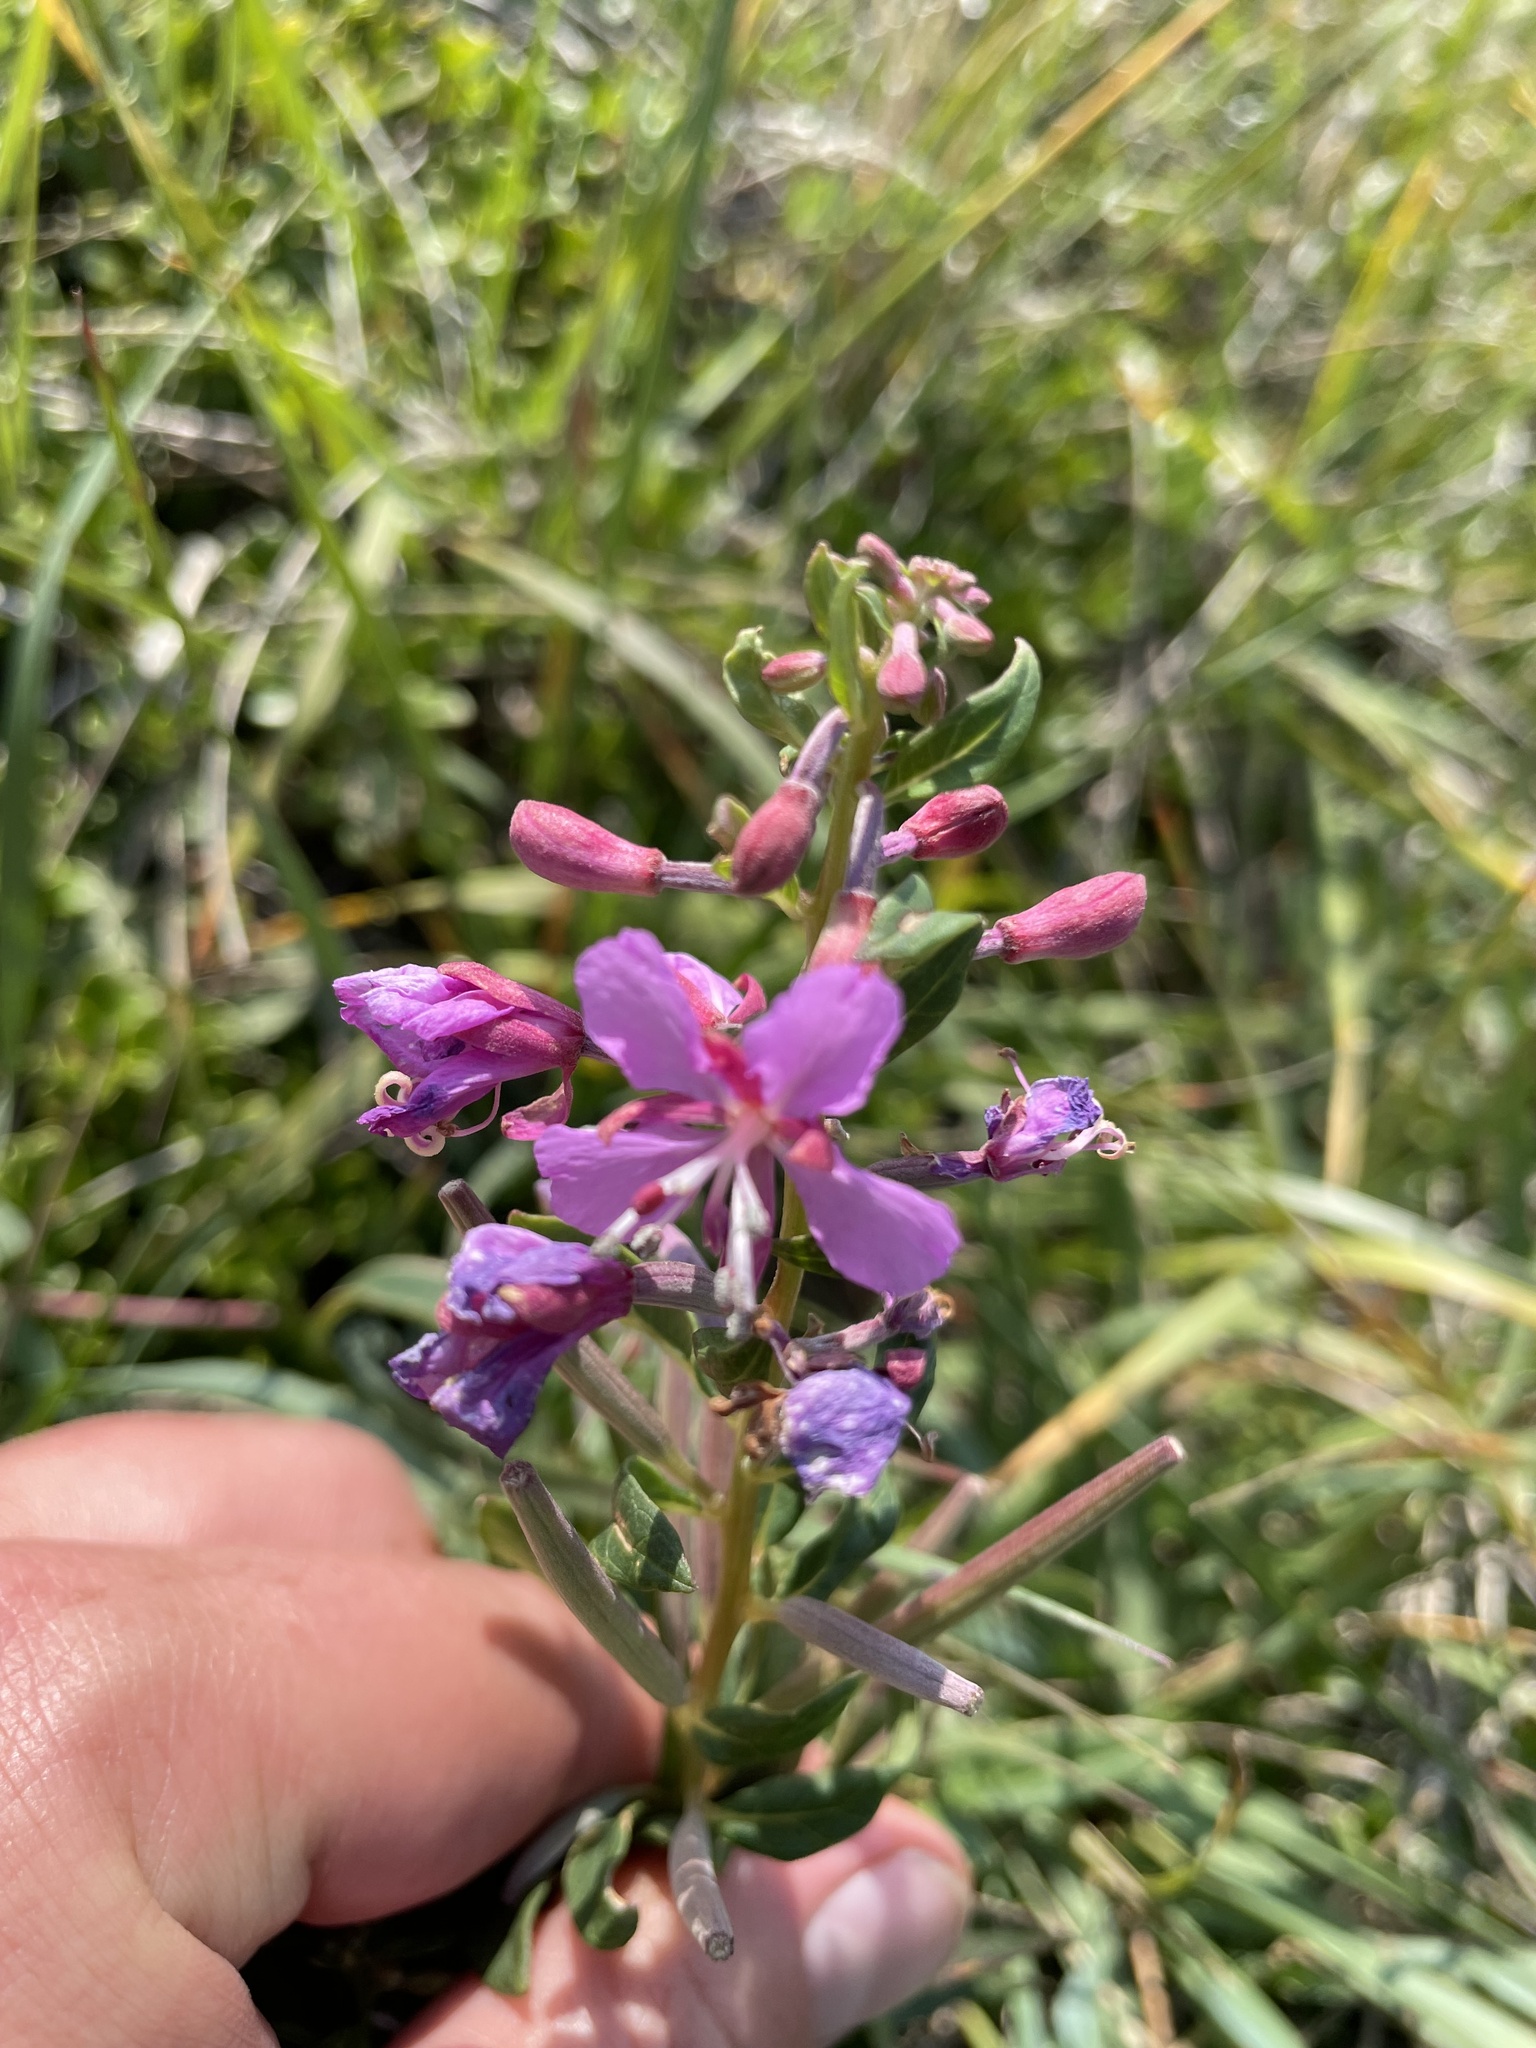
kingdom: Plantae
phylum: Tracheophyta
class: Magnoliopsida
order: Myrtales
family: Onagraceae
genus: Chamaenerion
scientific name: Chamaenerion angustifolium
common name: Fireweed
